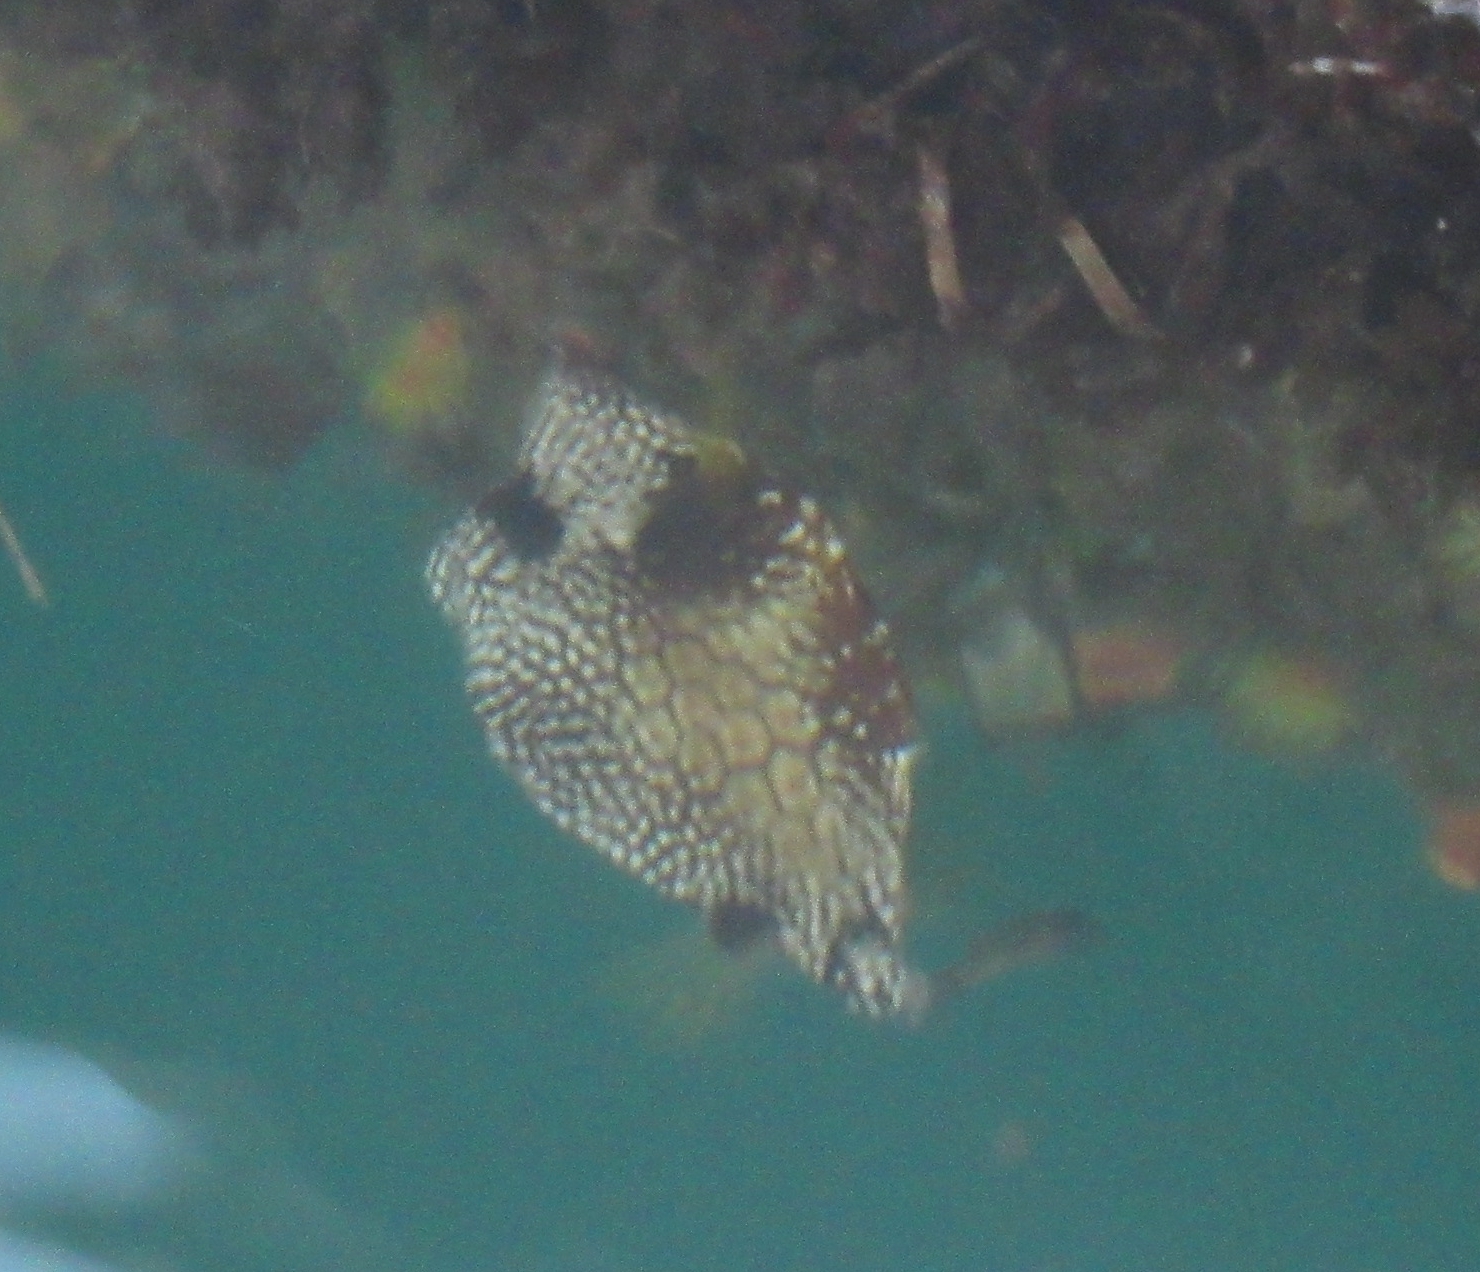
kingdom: Animalia
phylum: Chordata
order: Tetraodontiformes
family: Ostraciidae
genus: Lactophrys
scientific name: Lactophrys triqueter
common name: Smooth trunkfish
